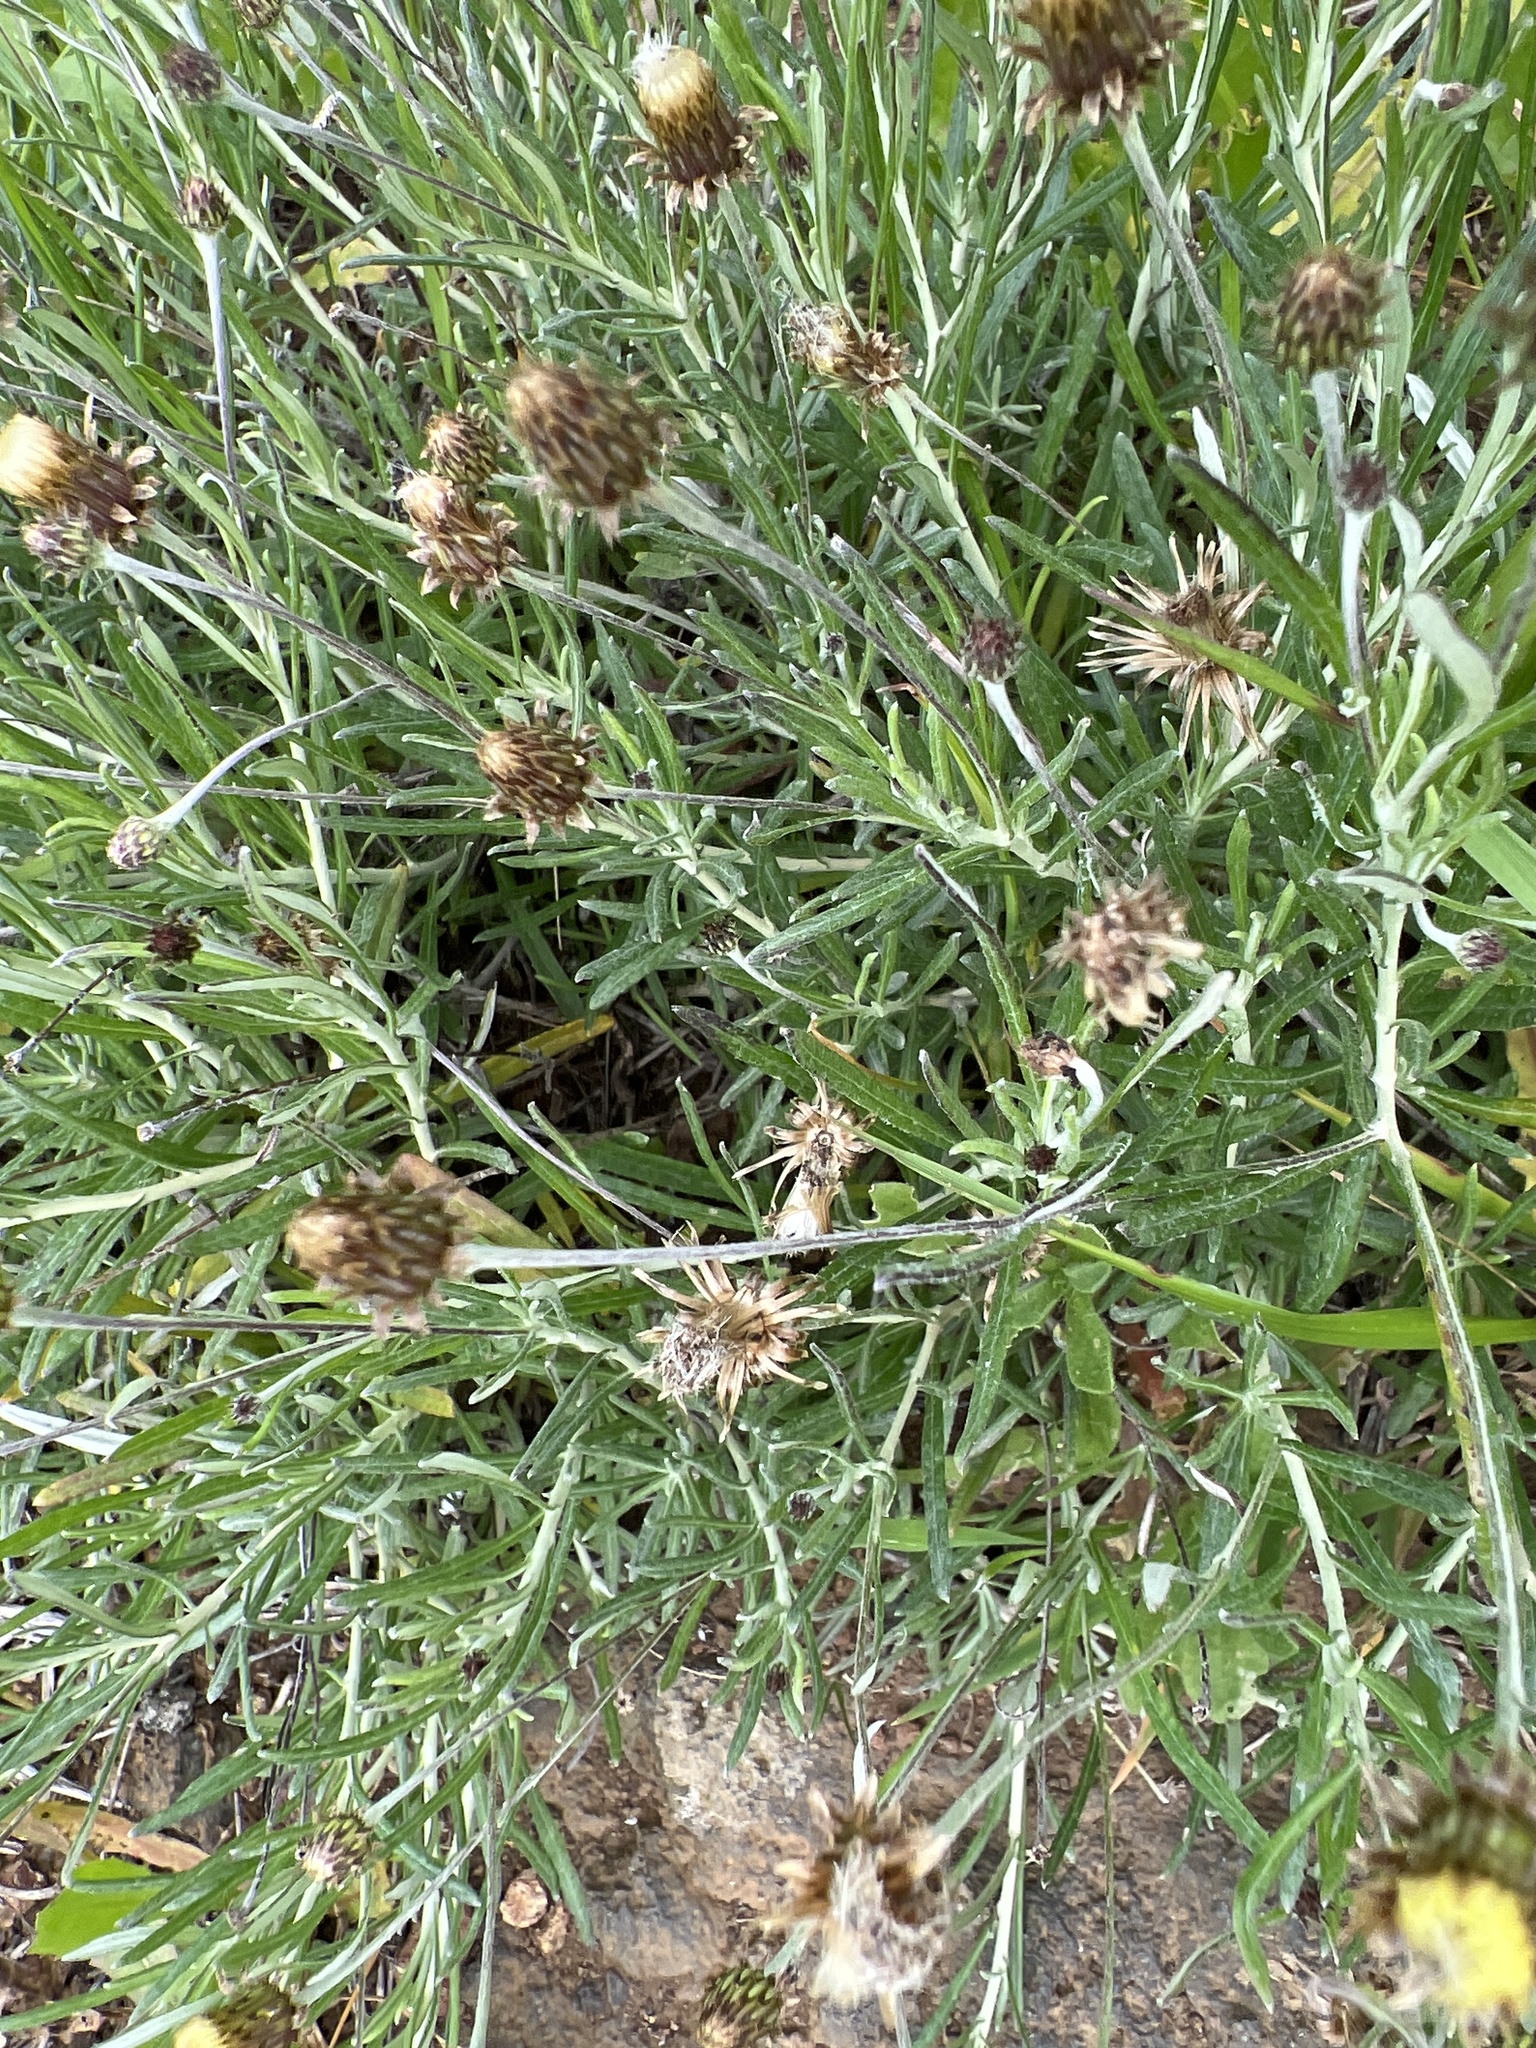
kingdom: Plantae
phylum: Tracheophyta
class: Magnoliopsida
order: Asterales
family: Asteraceae
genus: Phagnalon
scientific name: Phagnalon saxatile
